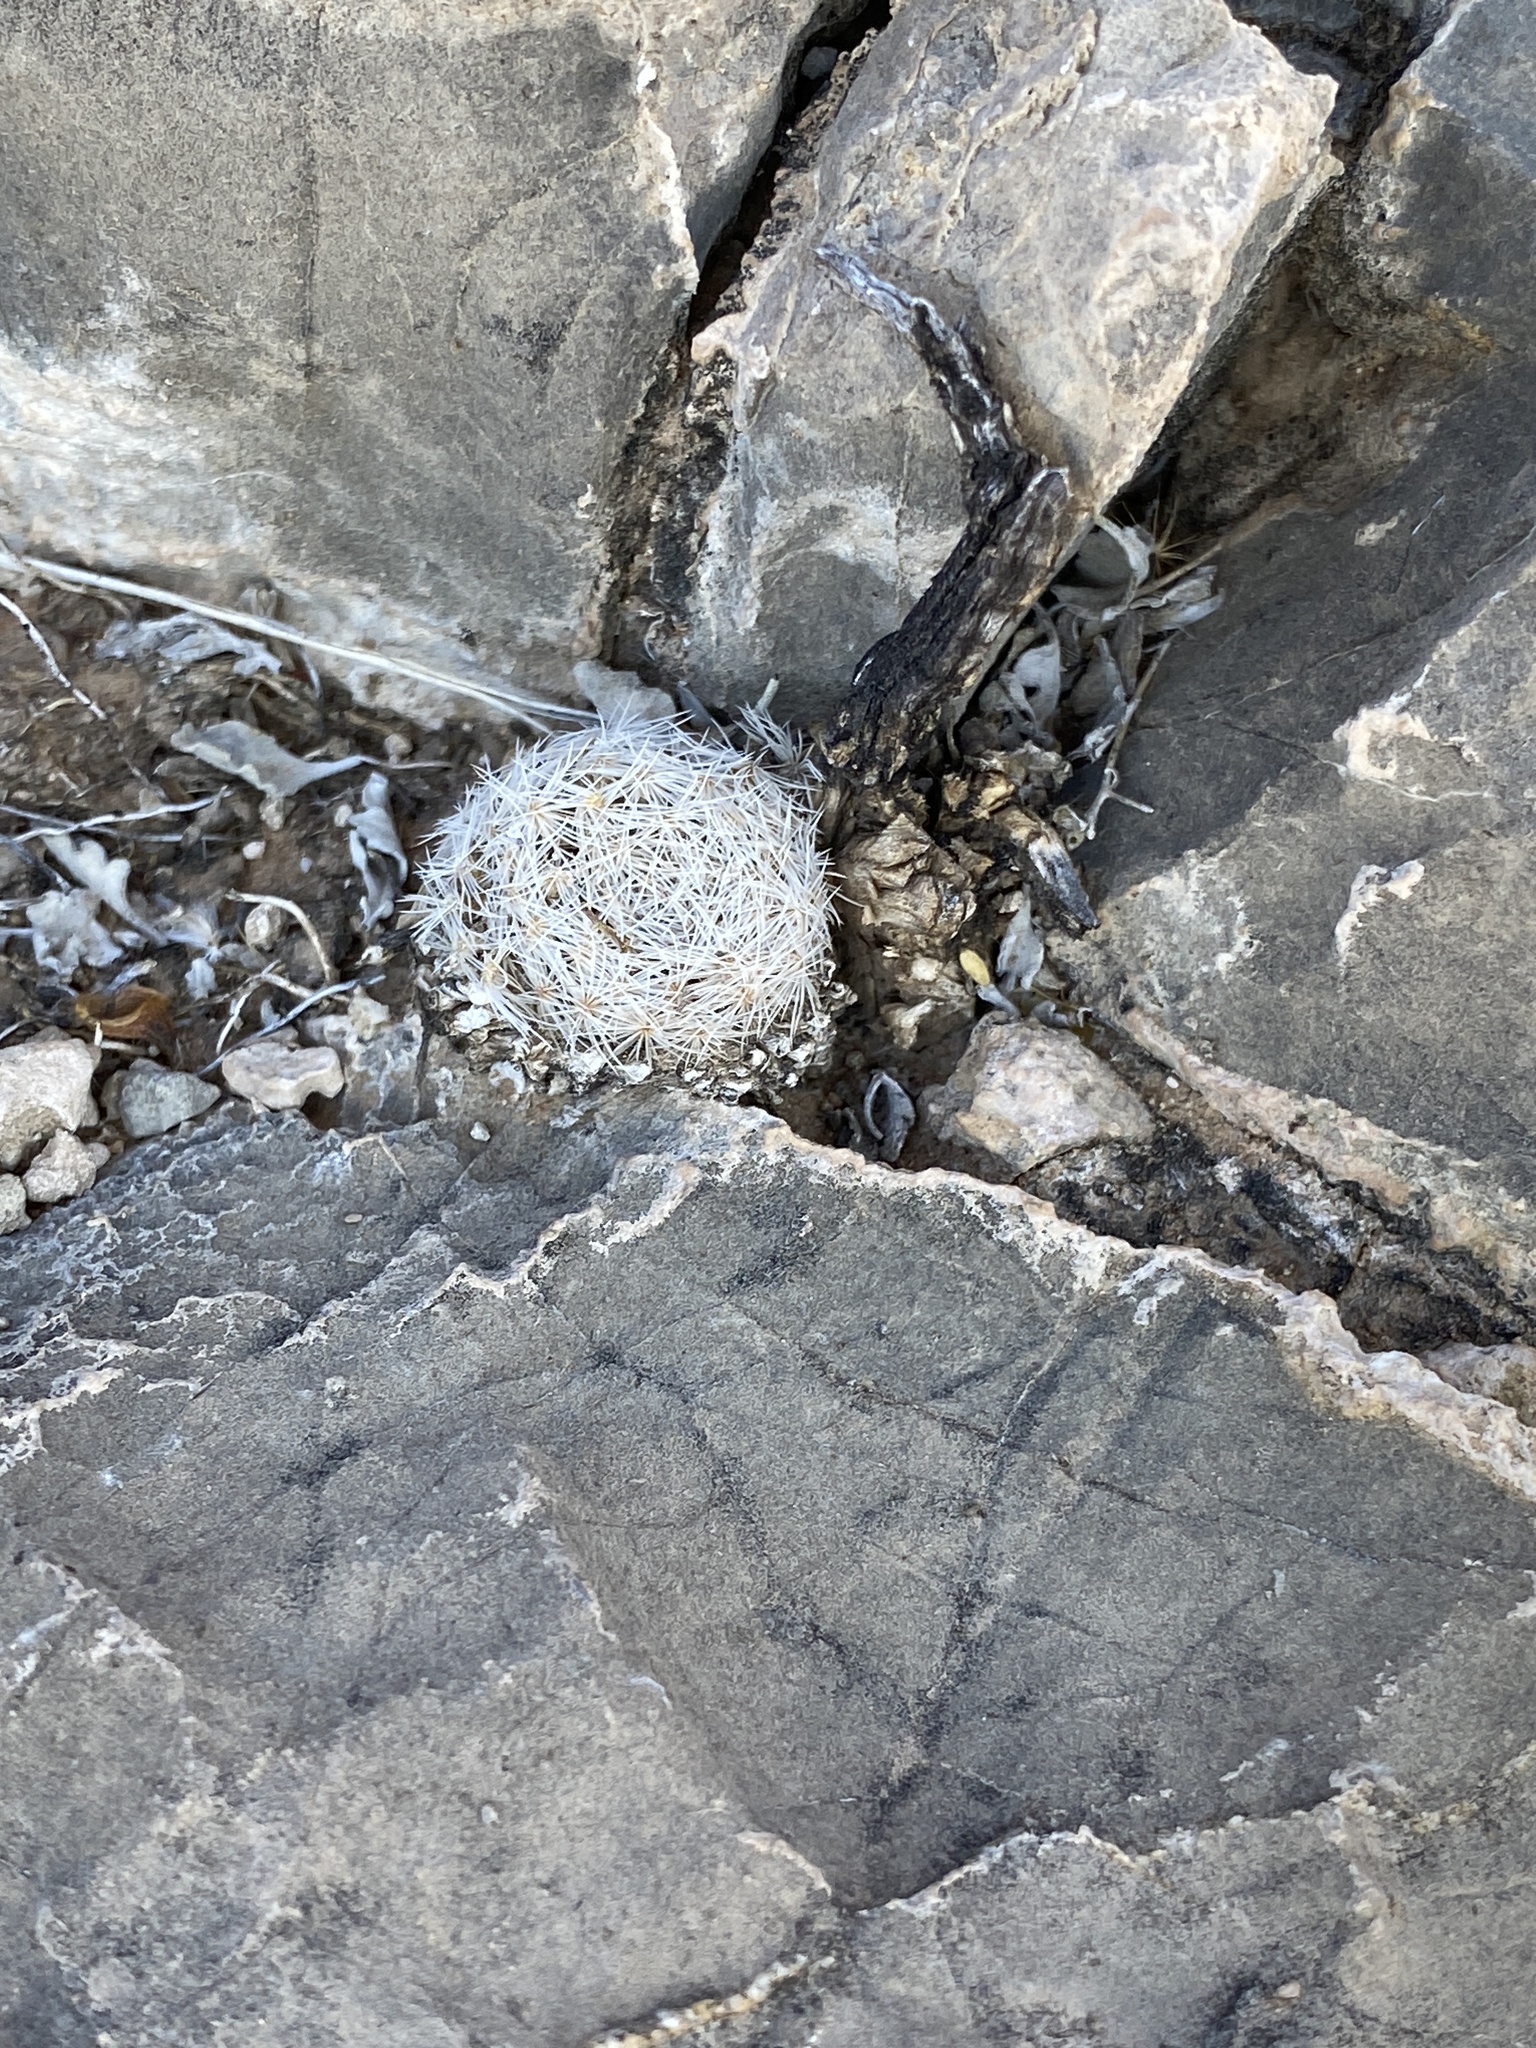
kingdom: Plantae
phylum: Tracheophyta
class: Magnoliopsida
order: Caryophyllales
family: Cactaceae
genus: Mammillaria
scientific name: Mammillaria lasiacantha
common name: Lace-spine nipple cactus
